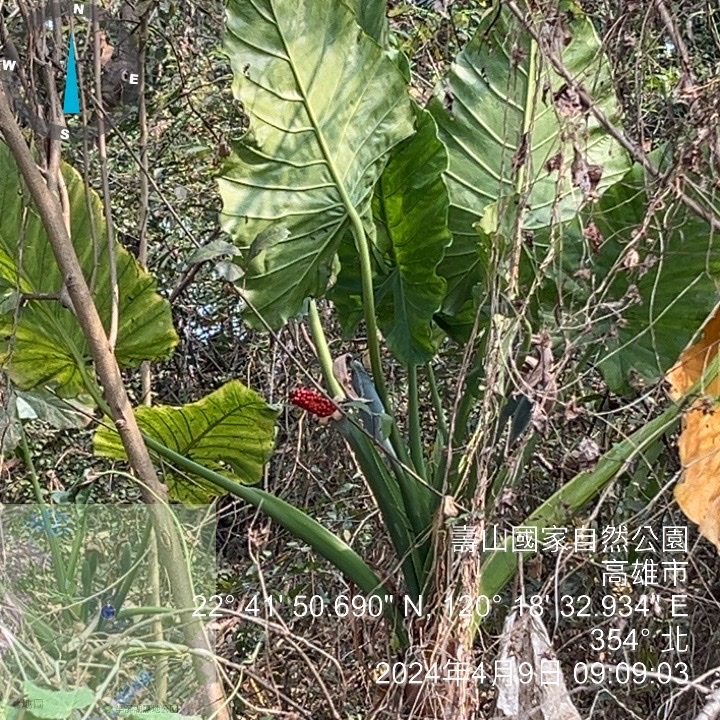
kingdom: Plantae
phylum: Tracheophyta
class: Liliopsida
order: Alismatales
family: Araceae
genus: Alocasia
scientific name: Alocasia odora
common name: Asian taro
